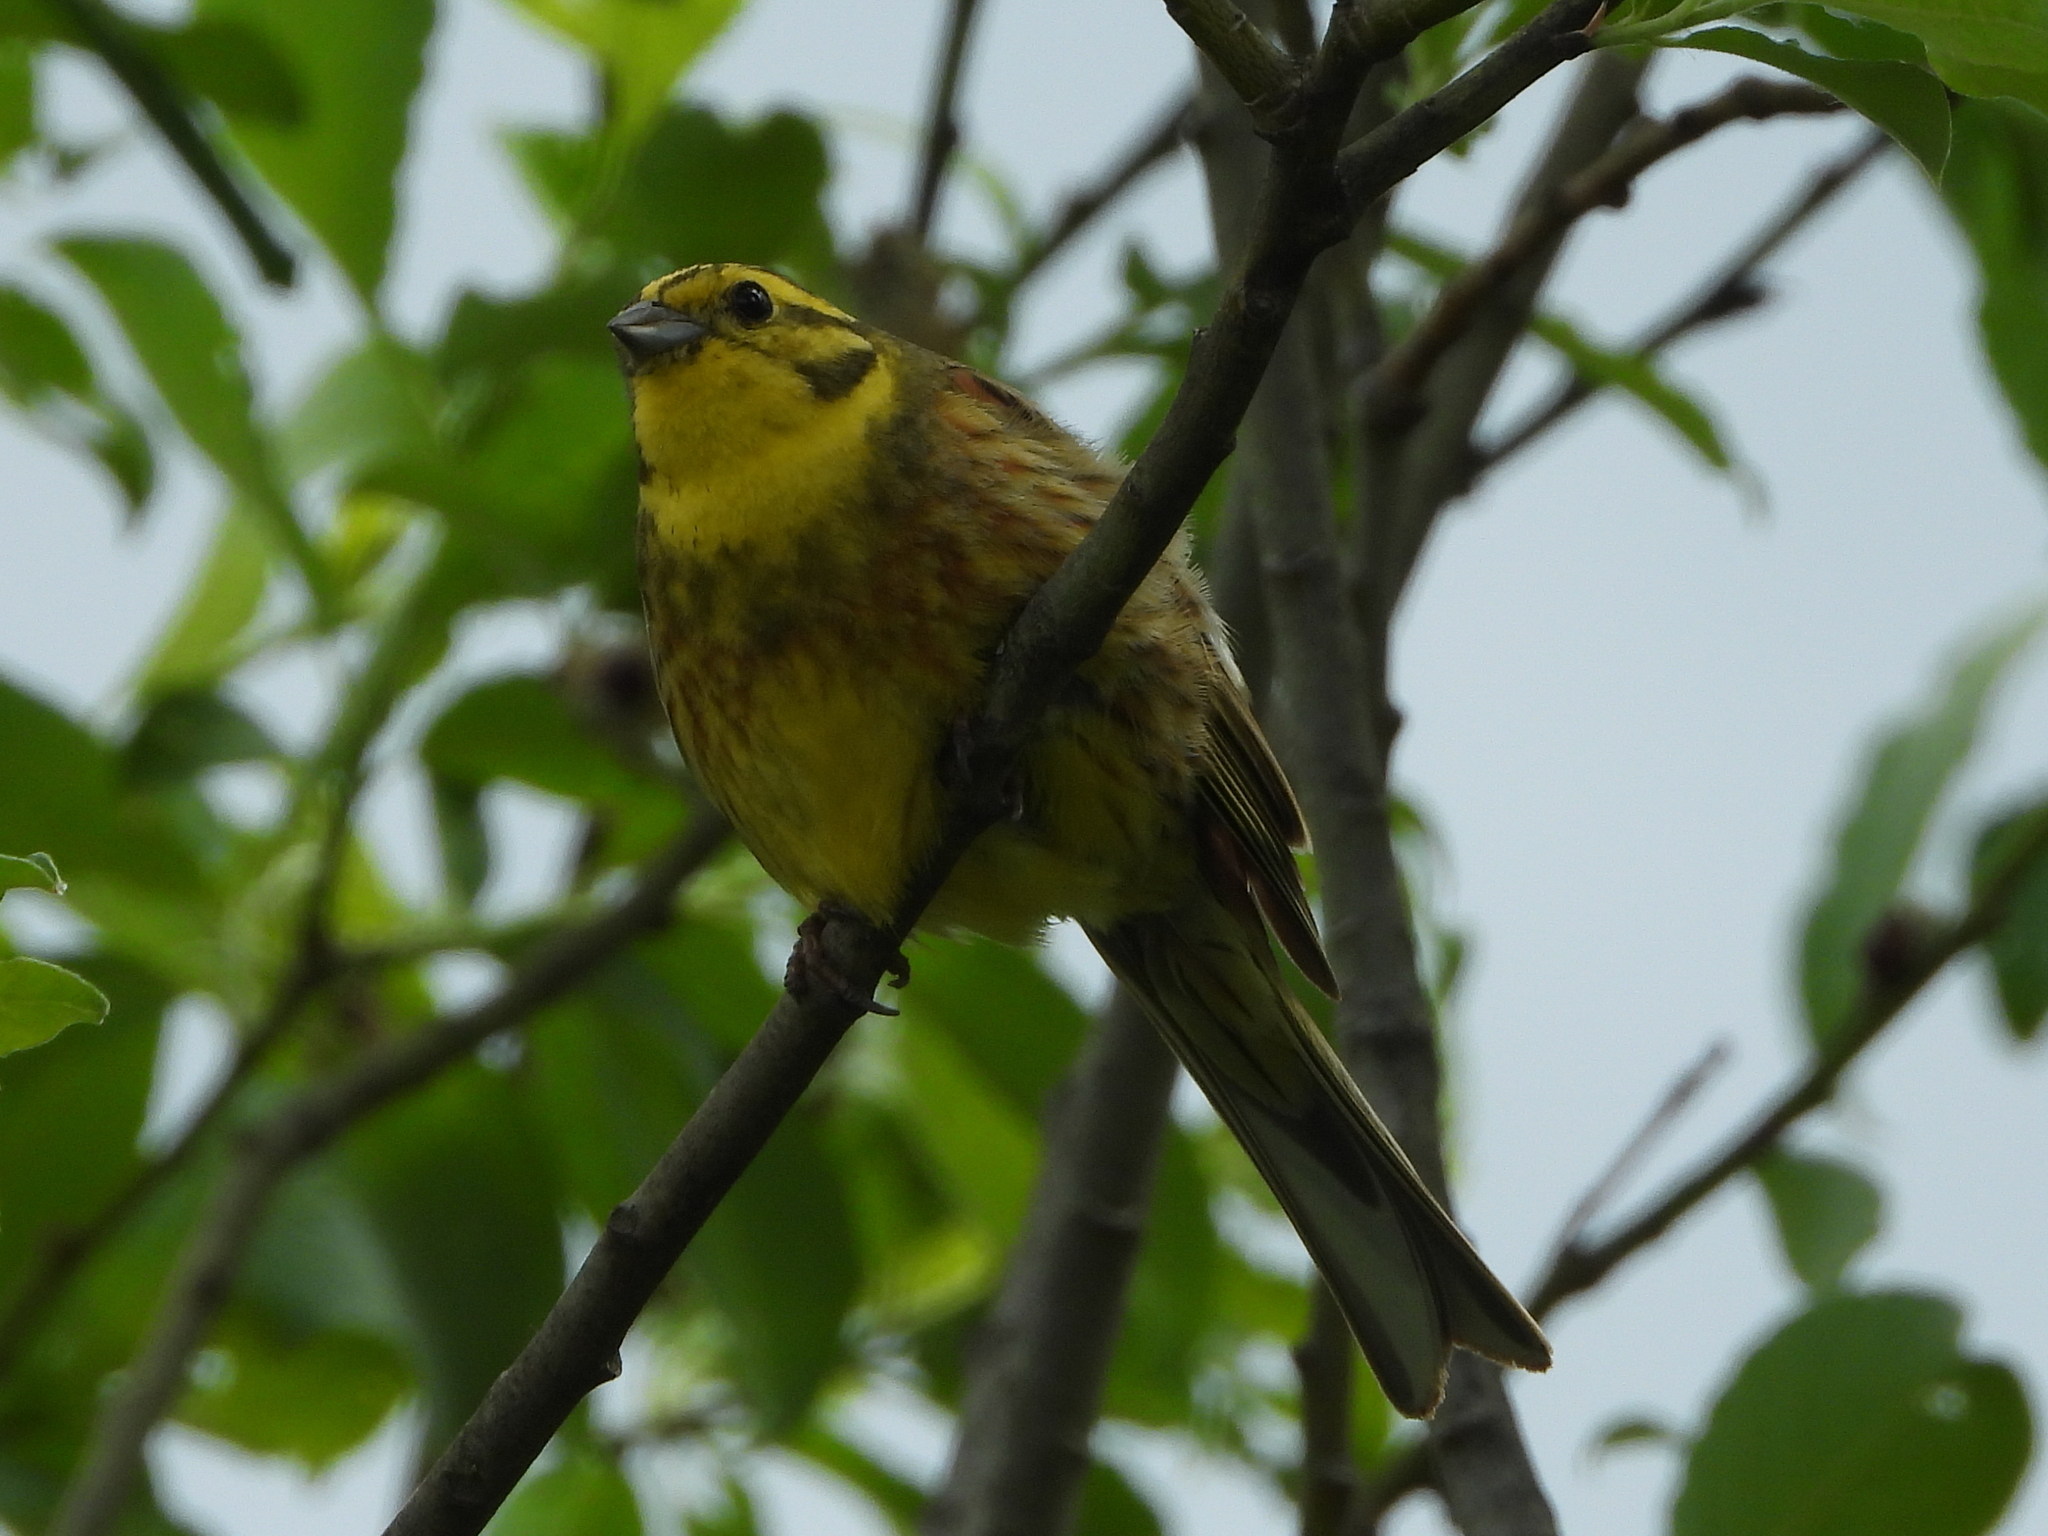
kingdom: Animalia
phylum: Chordata
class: Aves
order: Passeriformes
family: Emberizidae
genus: Emberiza
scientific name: Emberiza citrinella
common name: Yellowhammer
